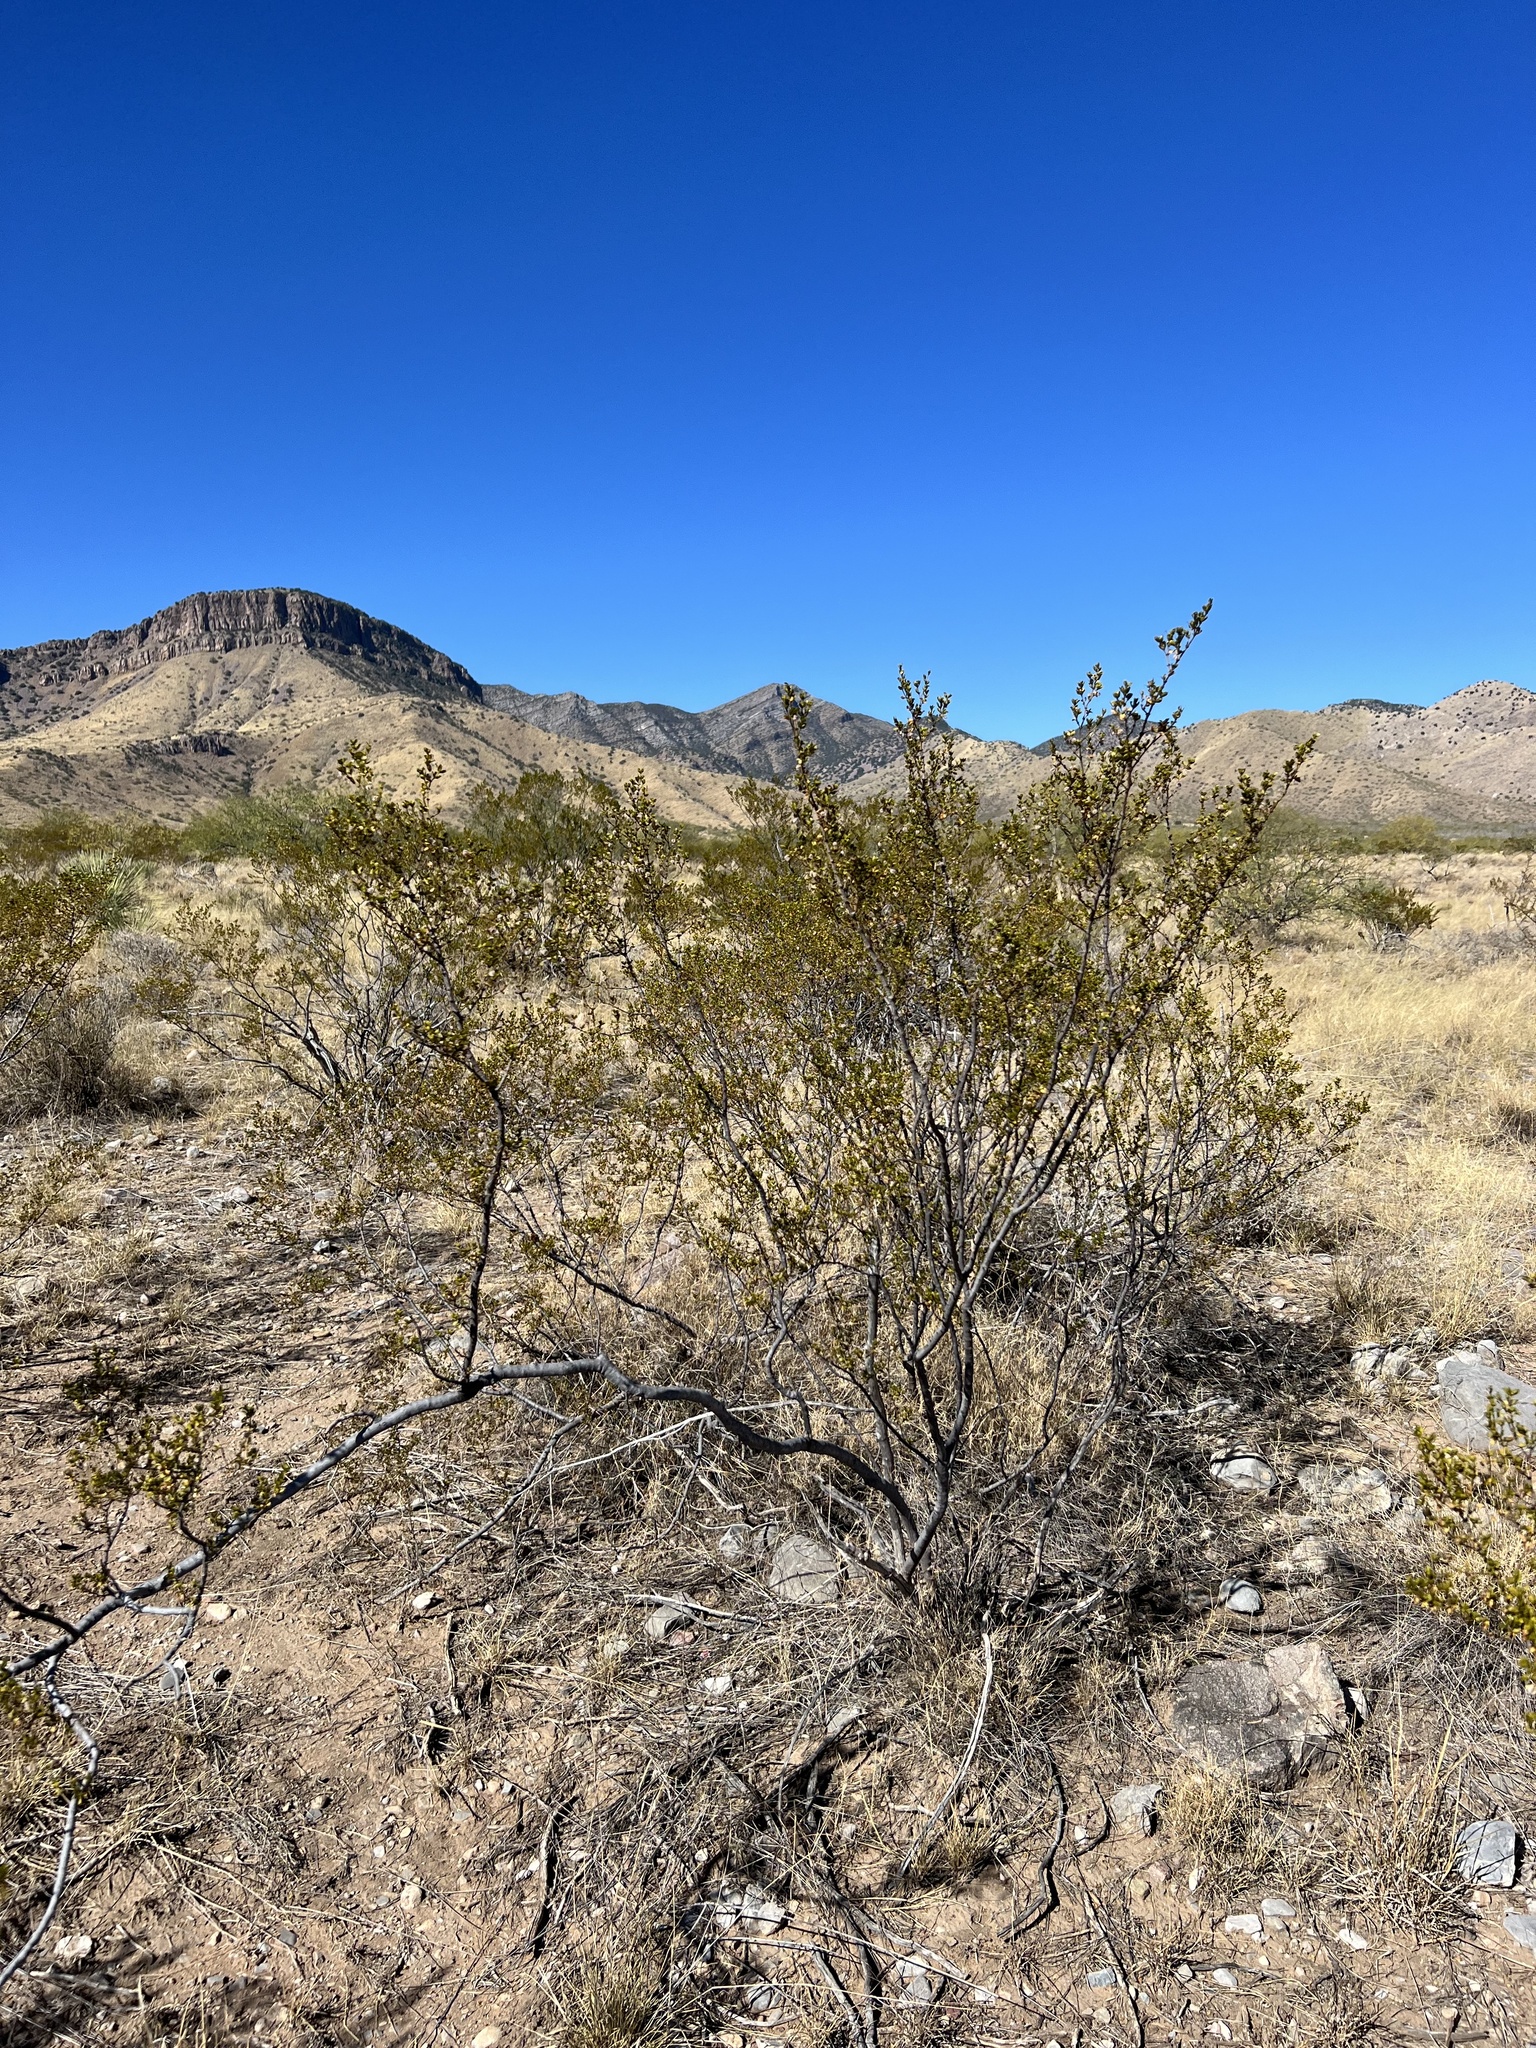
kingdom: Plantae
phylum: Tracheophyta
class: Magnoliopsida
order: Zygophyllales
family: Zygophyllaceae
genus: Larrea
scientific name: Larrea tridentata
